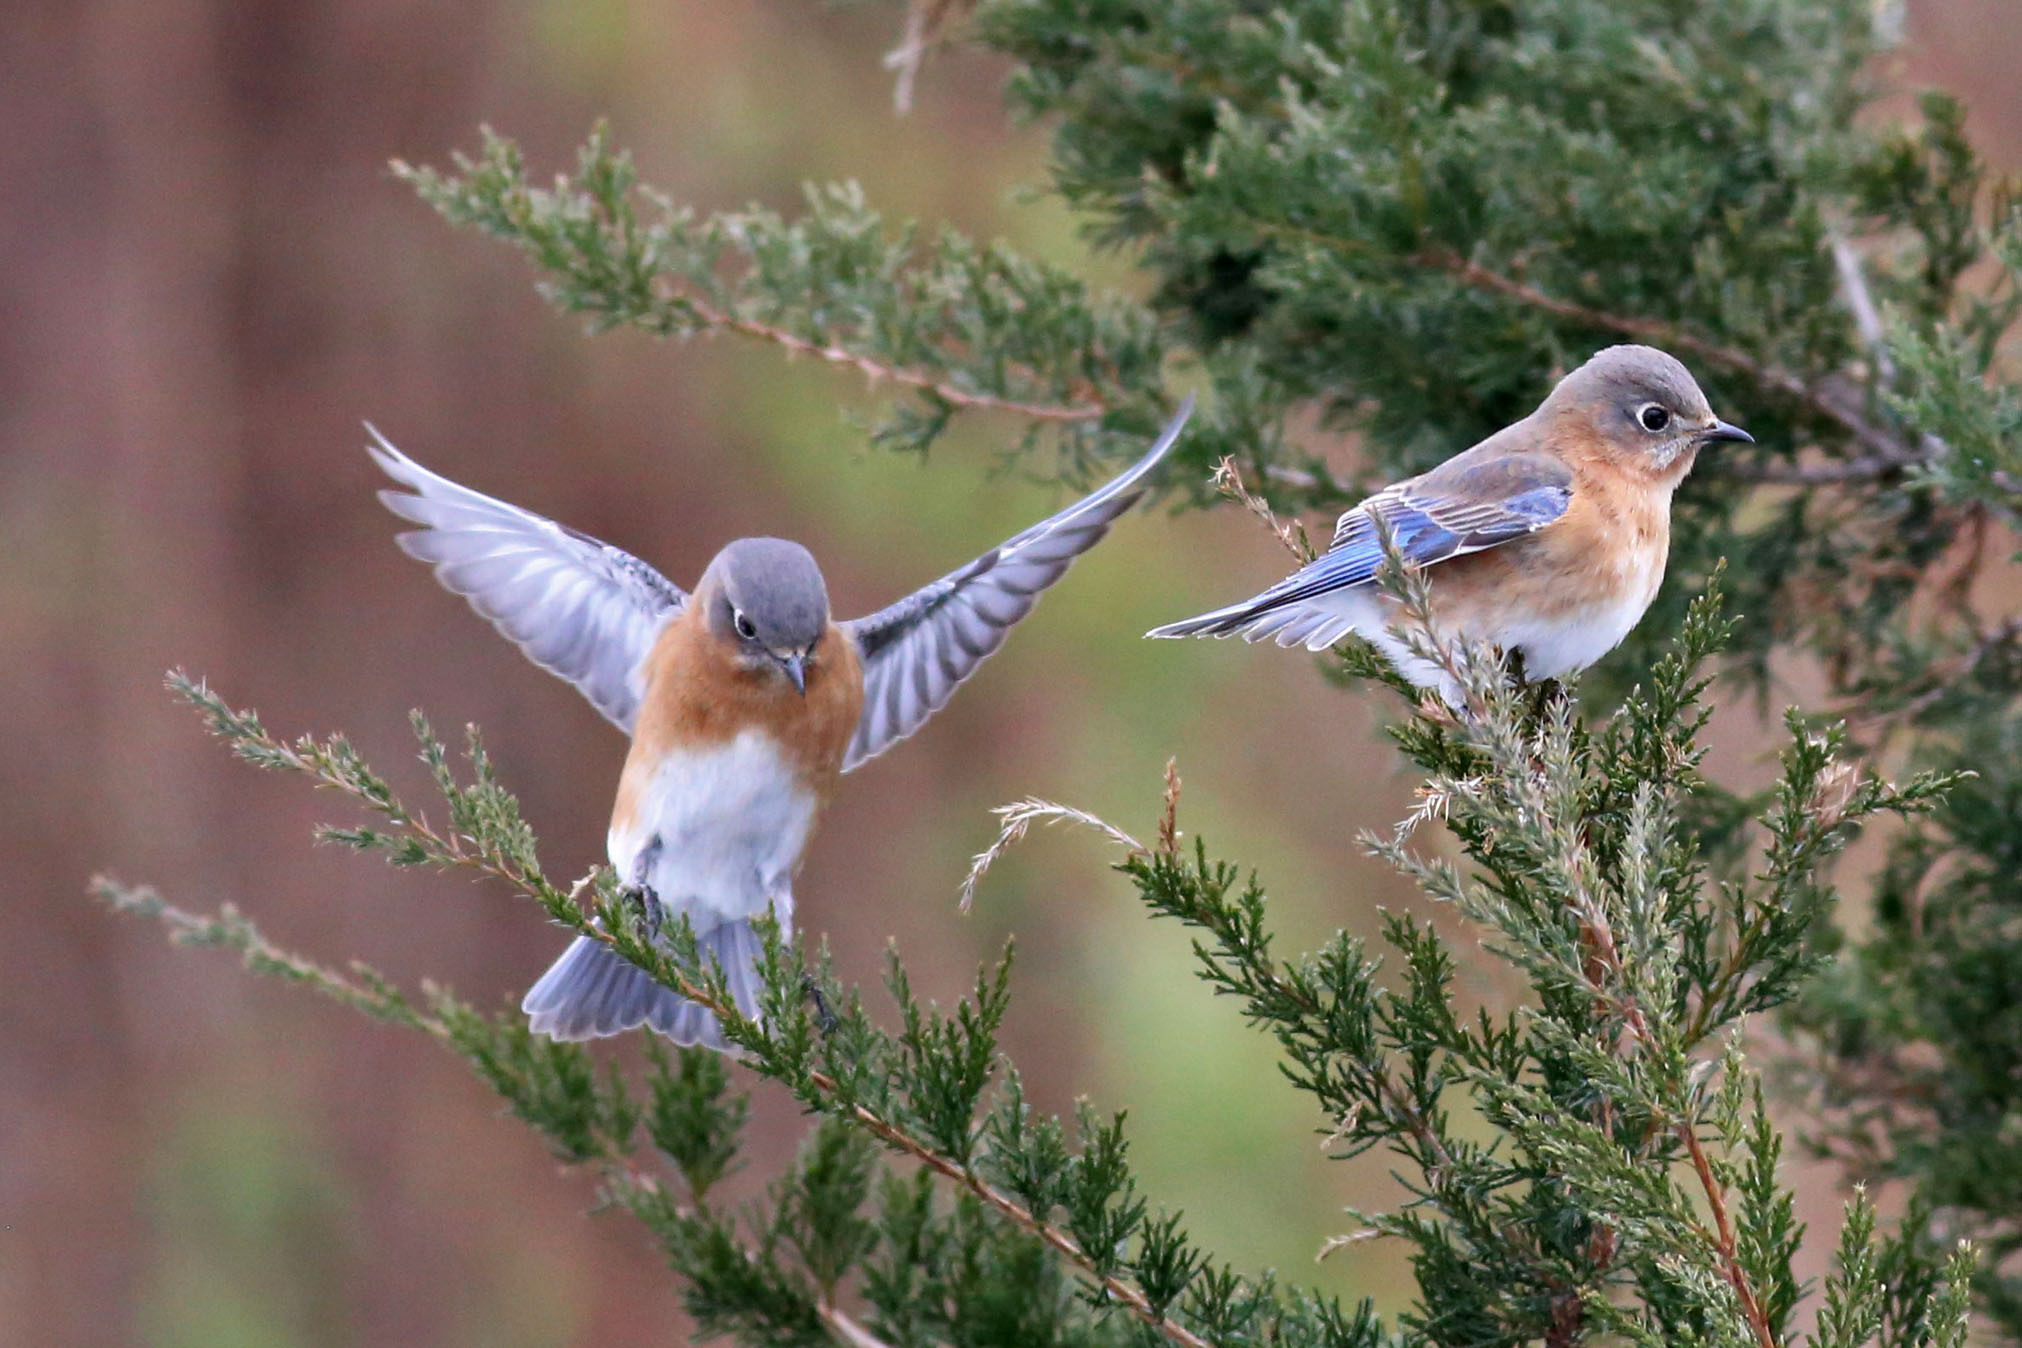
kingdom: Animalia
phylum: Chordata
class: Aves
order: Passeriformes
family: Turdidae
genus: Sialia
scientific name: Sialia sialis
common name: Eastern bluebird
